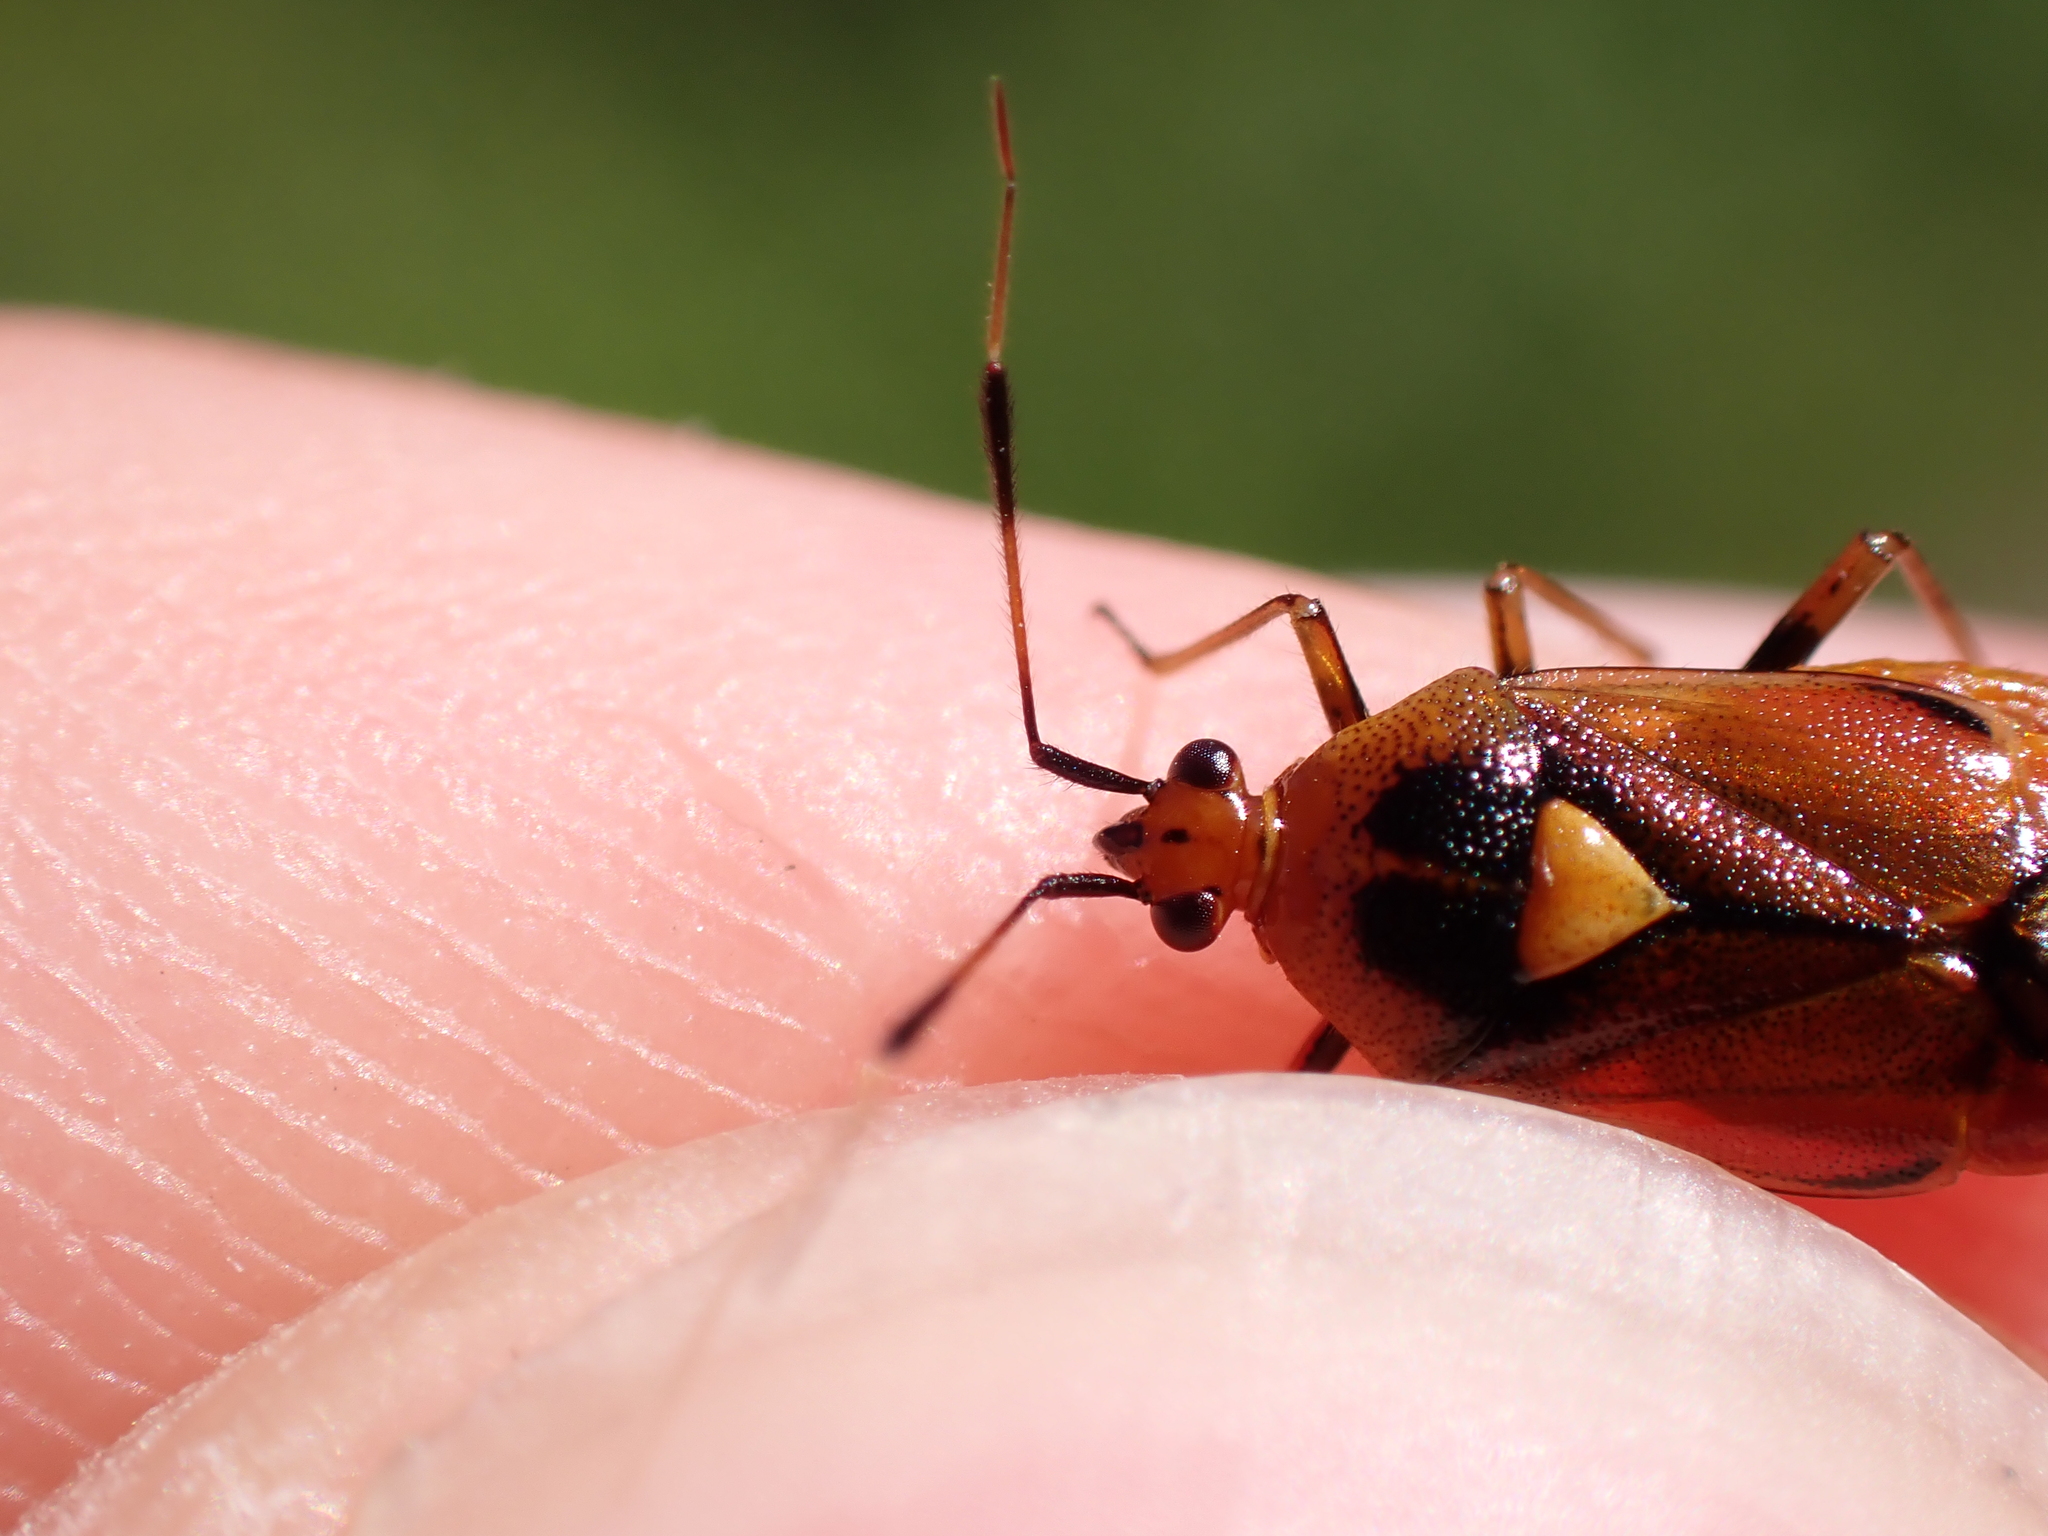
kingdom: Animalia
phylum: Arthropoda
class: Insecta
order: Hemiptera
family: Miridae
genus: Deraeocoris
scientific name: Deraeocoris ruber
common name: Plant bug
